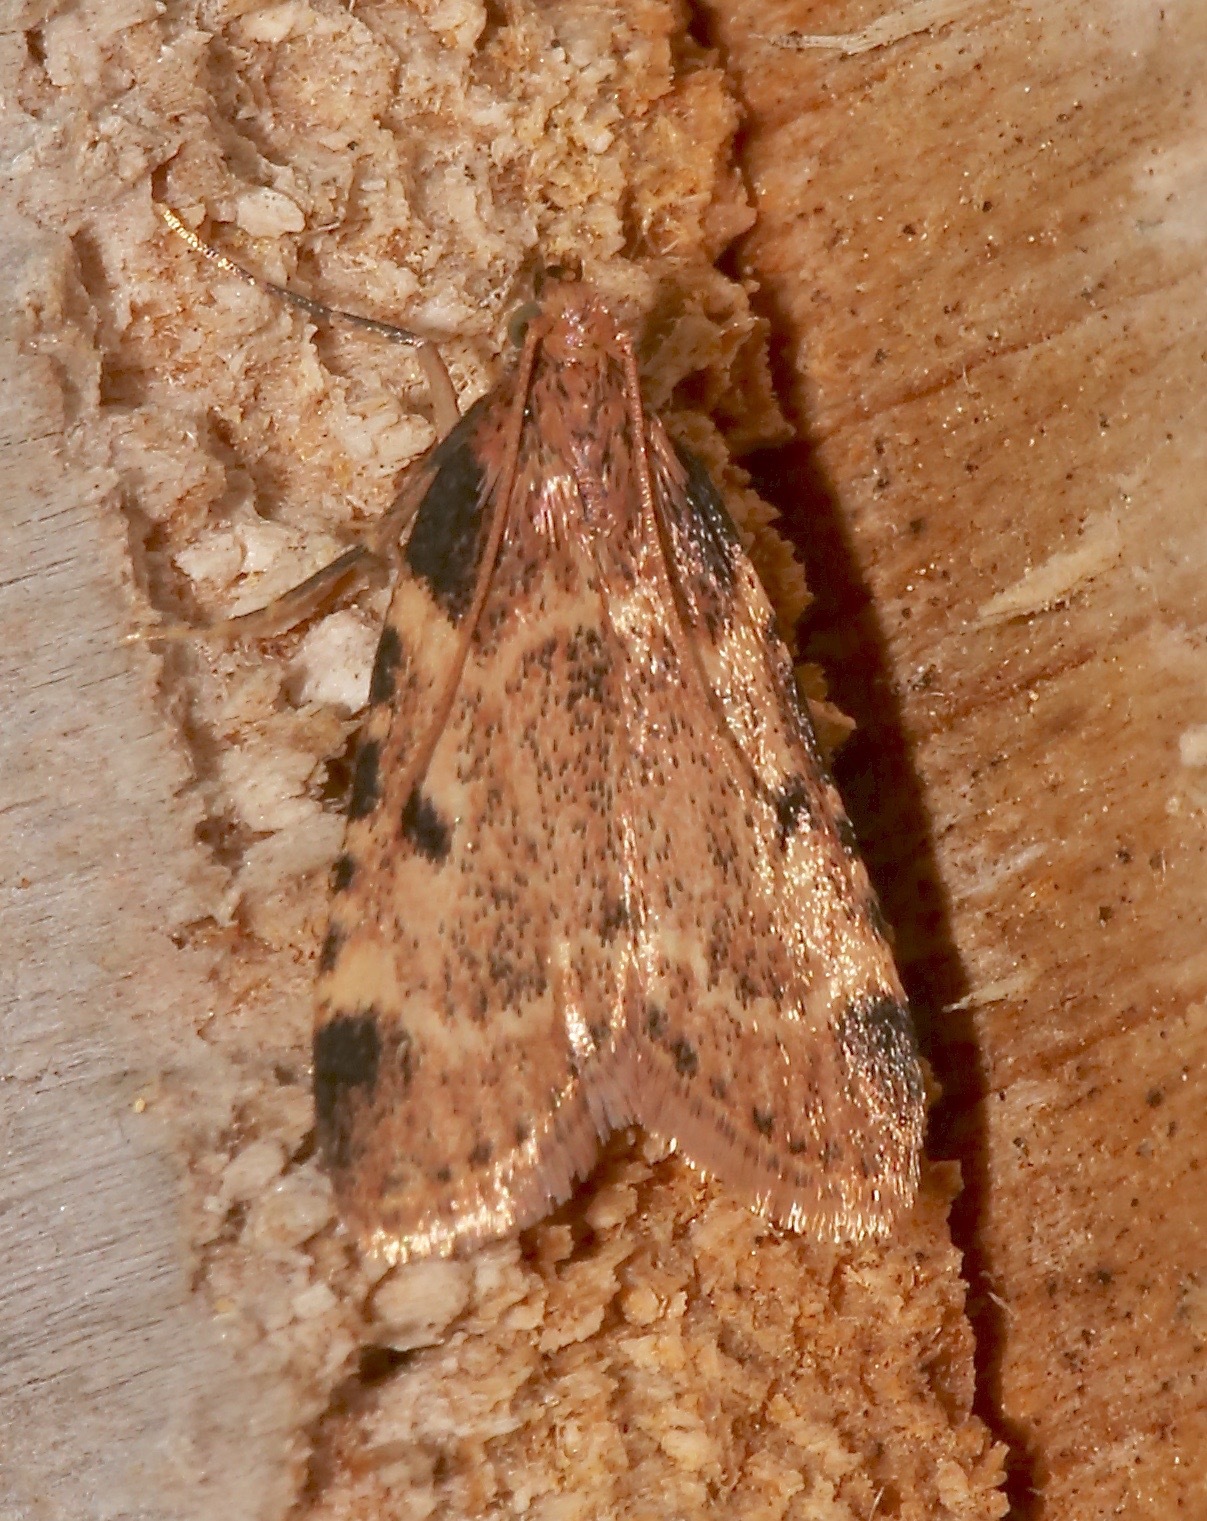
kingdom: Animalia
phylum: Arthropoda
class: Insecta
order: Lepidoptera
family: Pyralidae
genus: Aglossa
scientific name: Aglossa costiferalis
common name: Calico pyralid moth
